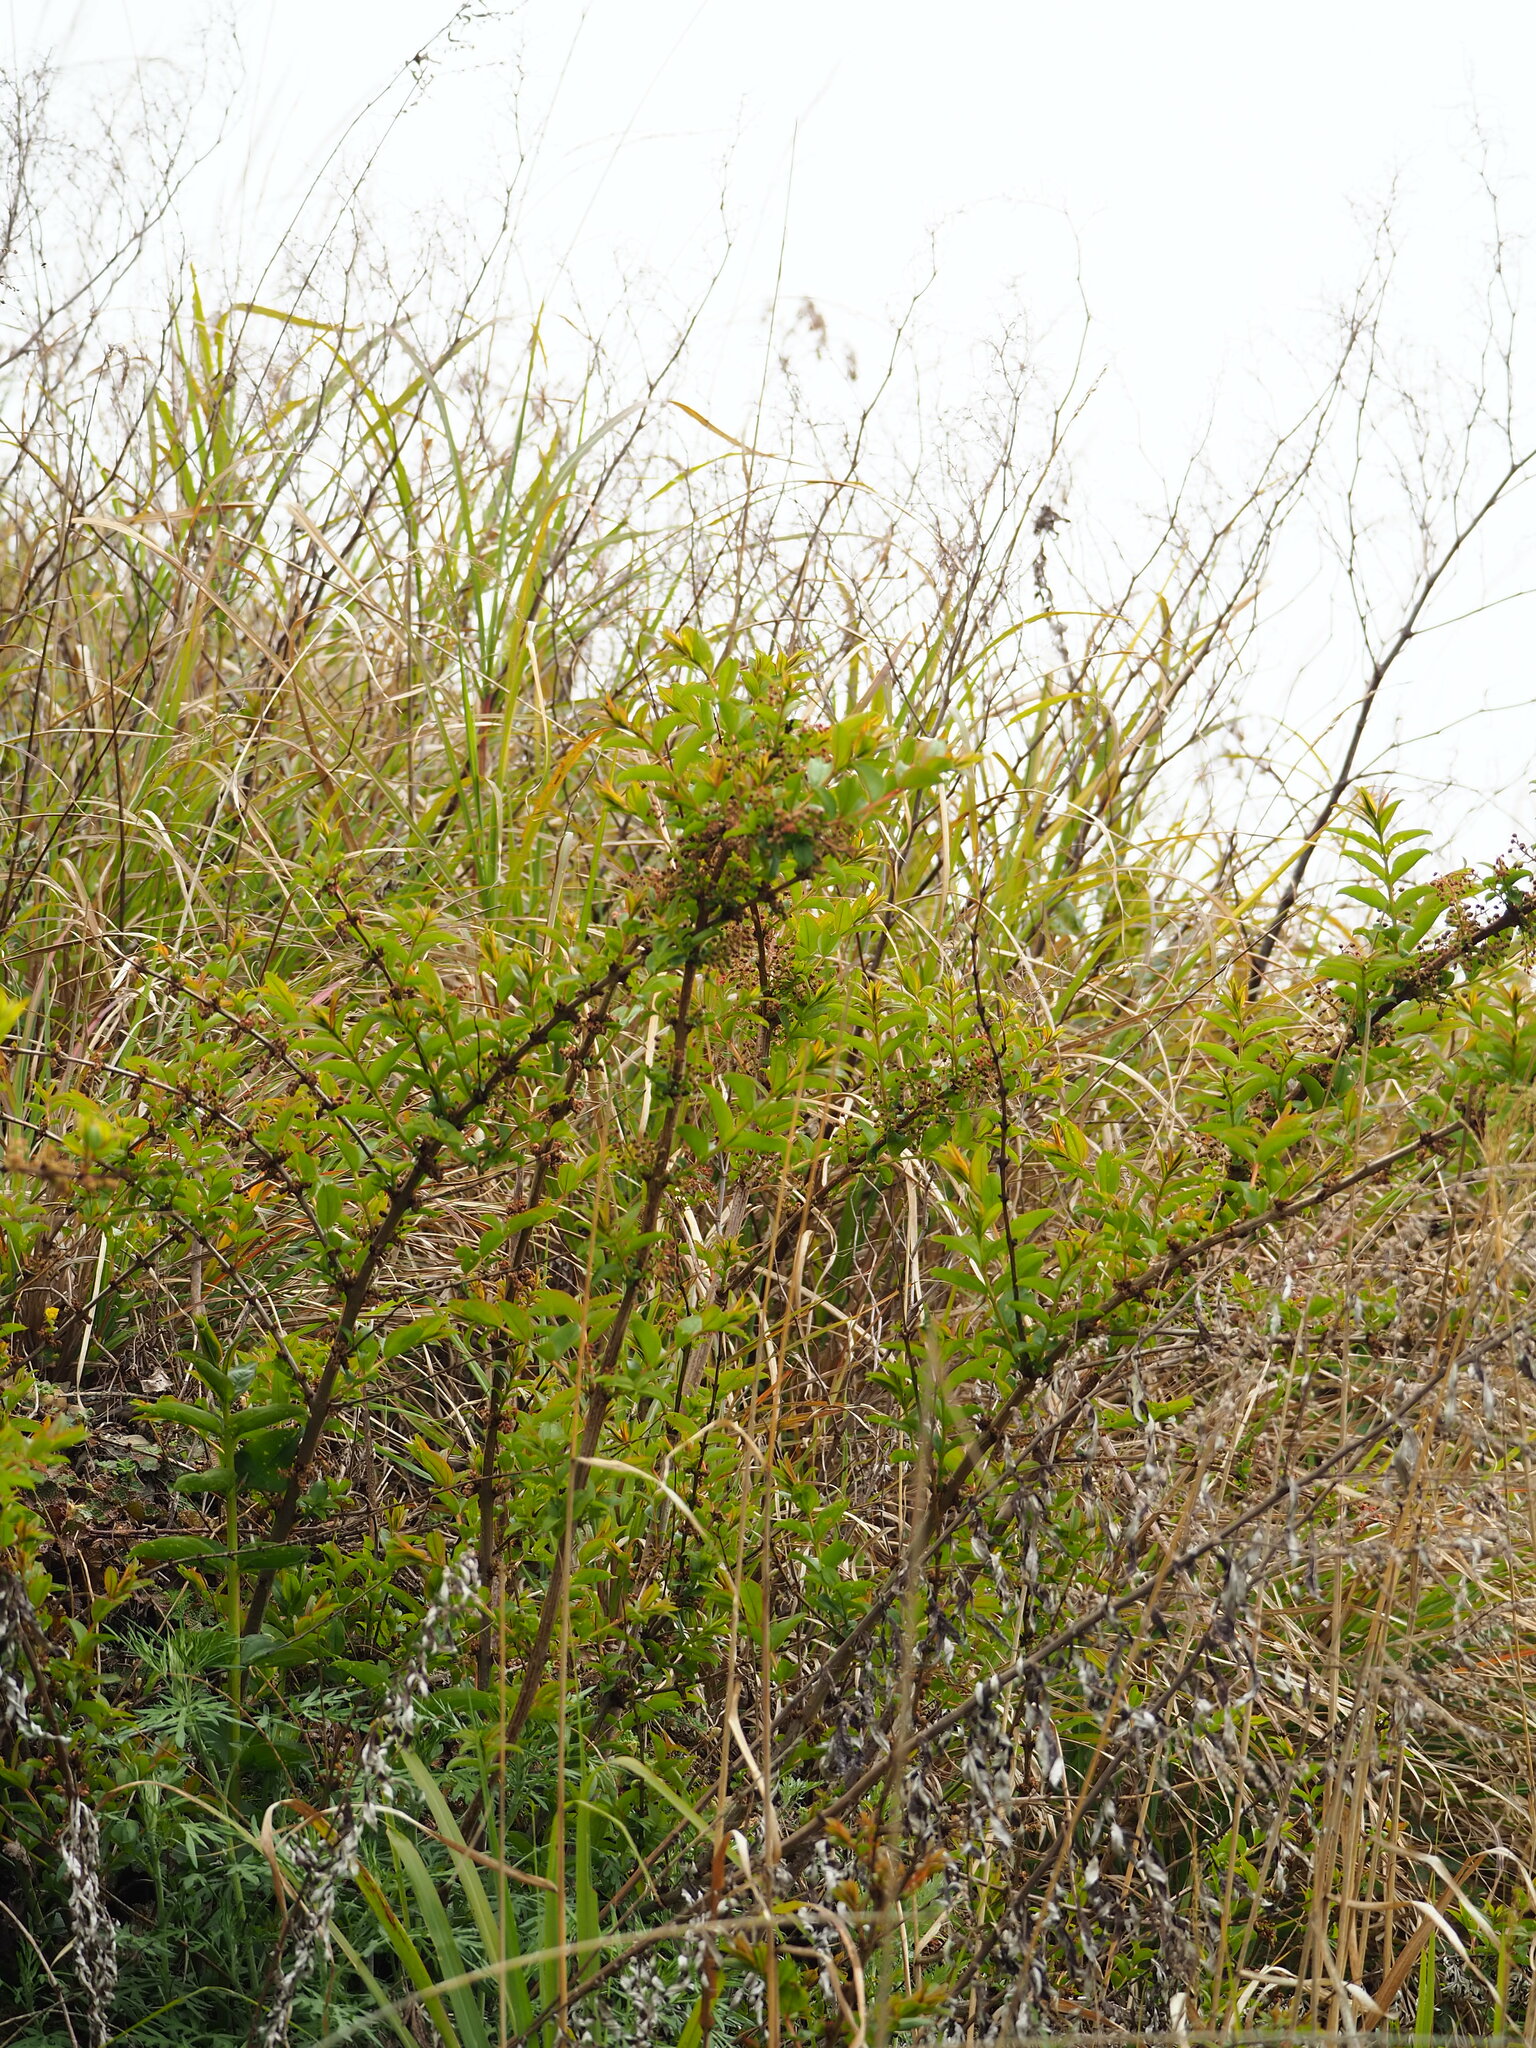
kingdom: Plantae
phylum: Tracheophyta
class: Magnoliopsida
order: Cucurbitales
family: Coriariaceae
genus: Coriaria
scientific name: Coriaria japonica
